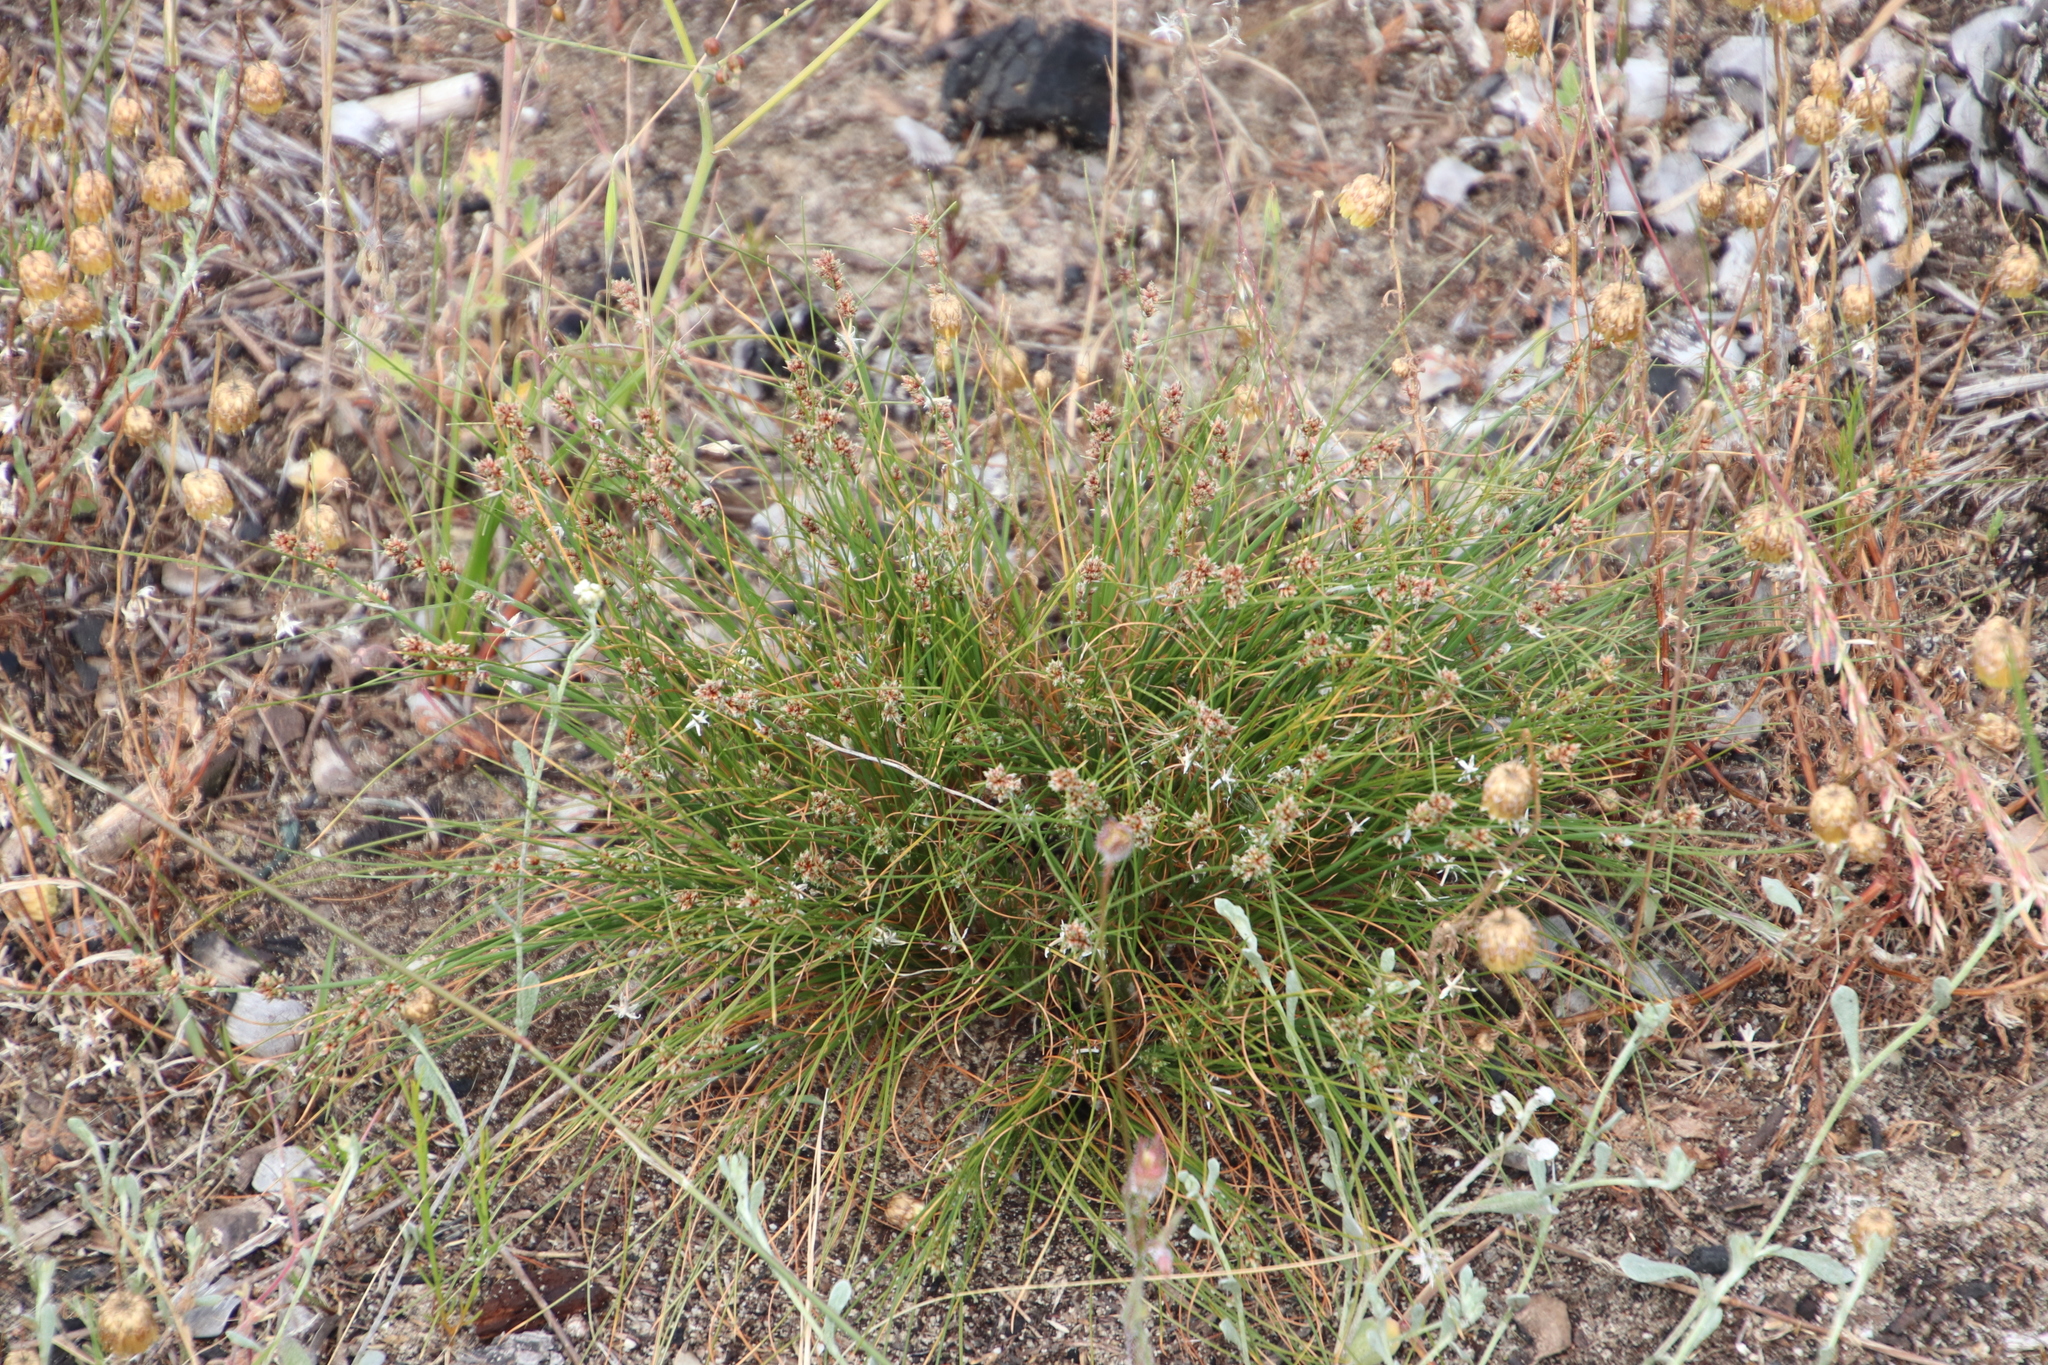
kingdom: Plantae
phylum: Tracheophyta
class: Liliopsida
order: Poales
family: Cyperaceae
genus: Ficinia
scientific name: Ficinia bulbosa
